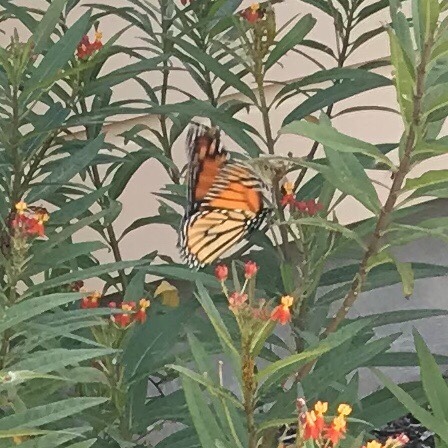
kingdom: Animalia
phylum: Arthropoda
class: Insecta
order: Lepidoptera
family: Nymphalidae
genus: Danaus
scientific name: Danaus plexippus
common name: Monarch
